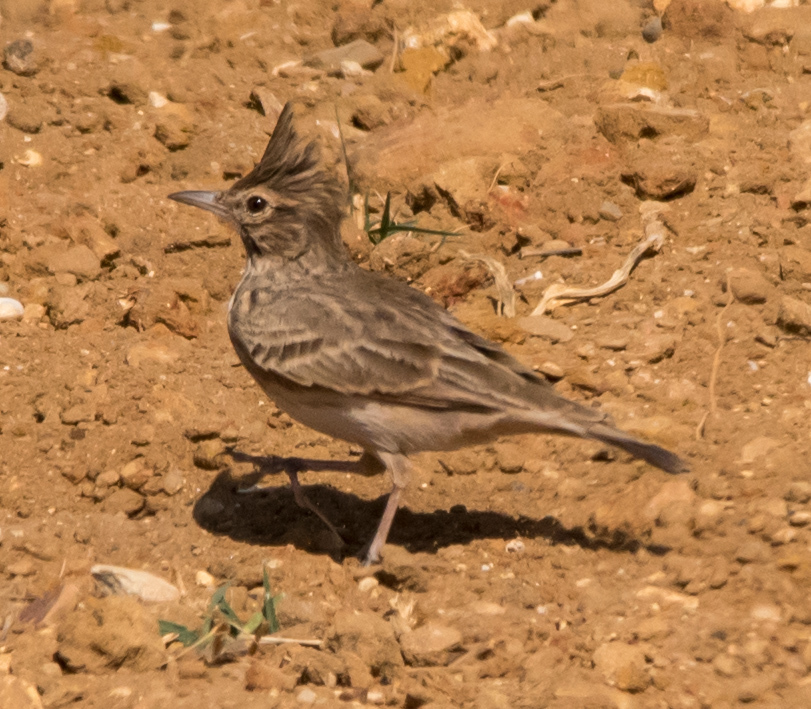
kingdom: Animalia
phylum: Chordata
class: Aves
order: Passeriformes
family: Alaudidae
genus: Galerida
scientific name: Galerida cristata
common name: Crested lark
